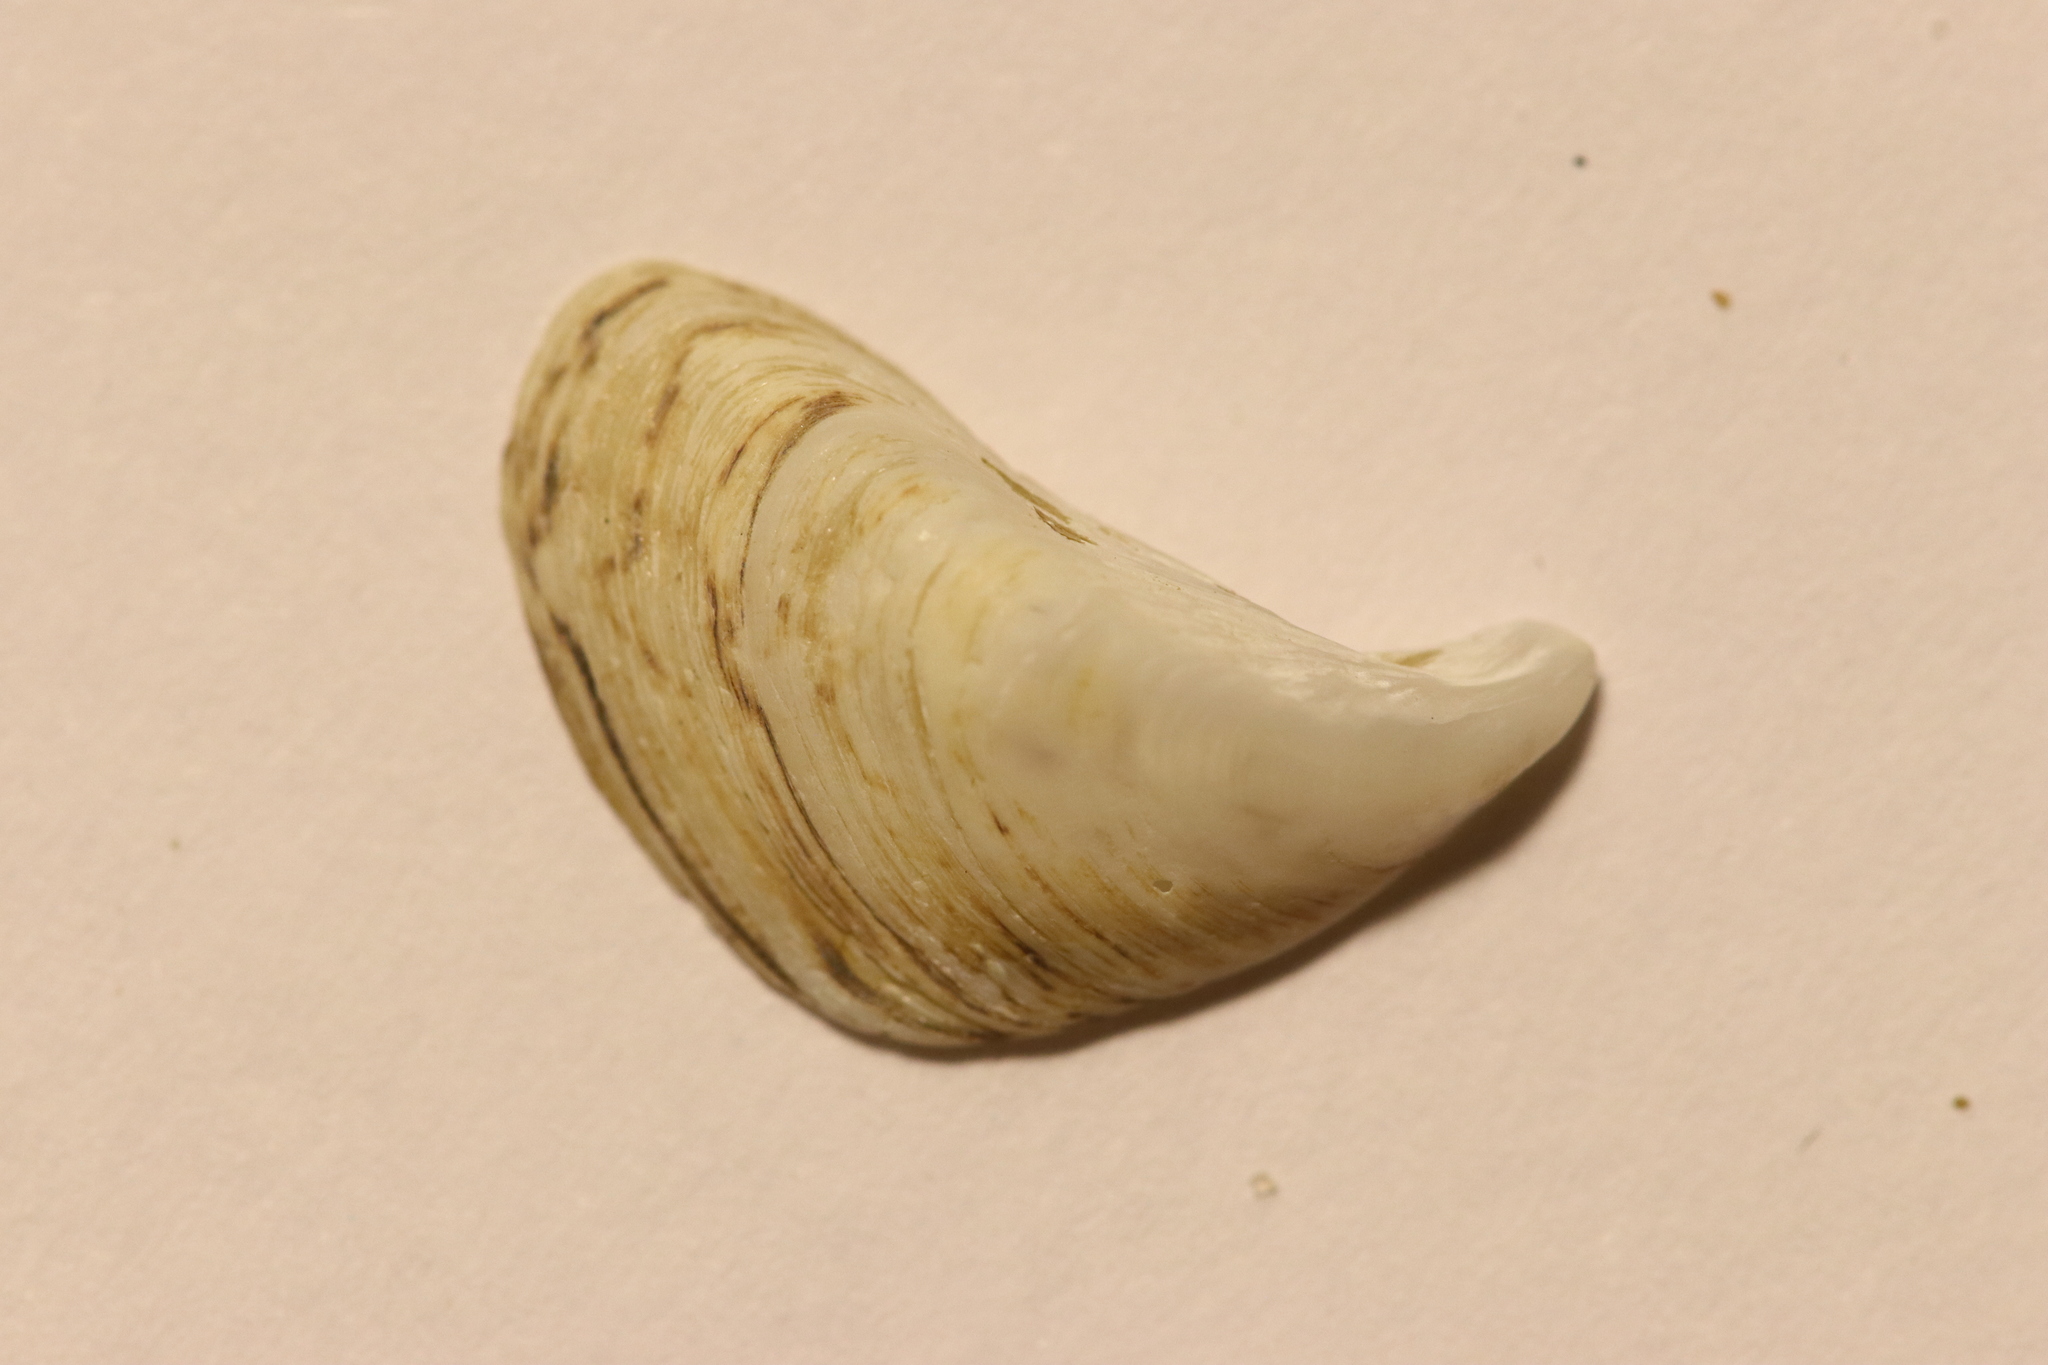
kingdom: Animalia
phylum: Mollusca
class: Bivalvia
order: Myida
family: Dreissenidae
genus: Dreissena
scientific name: Dreissena bugensis
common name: Quagga mussel
